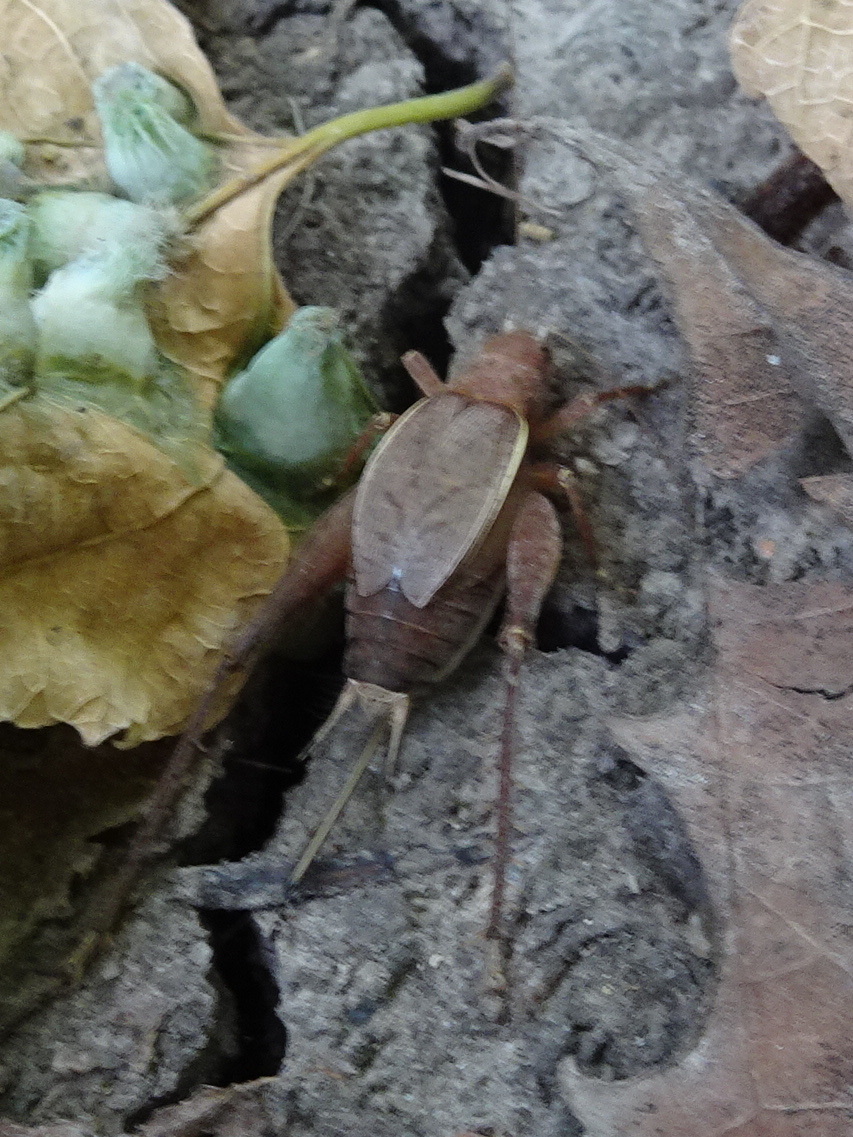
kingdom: Animalia
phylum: Arthropoda
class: Insecta
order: Orthoptera
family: Gryllidae
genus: Hapithus
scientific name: Hapithus agitator
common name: Restless bush cricket
